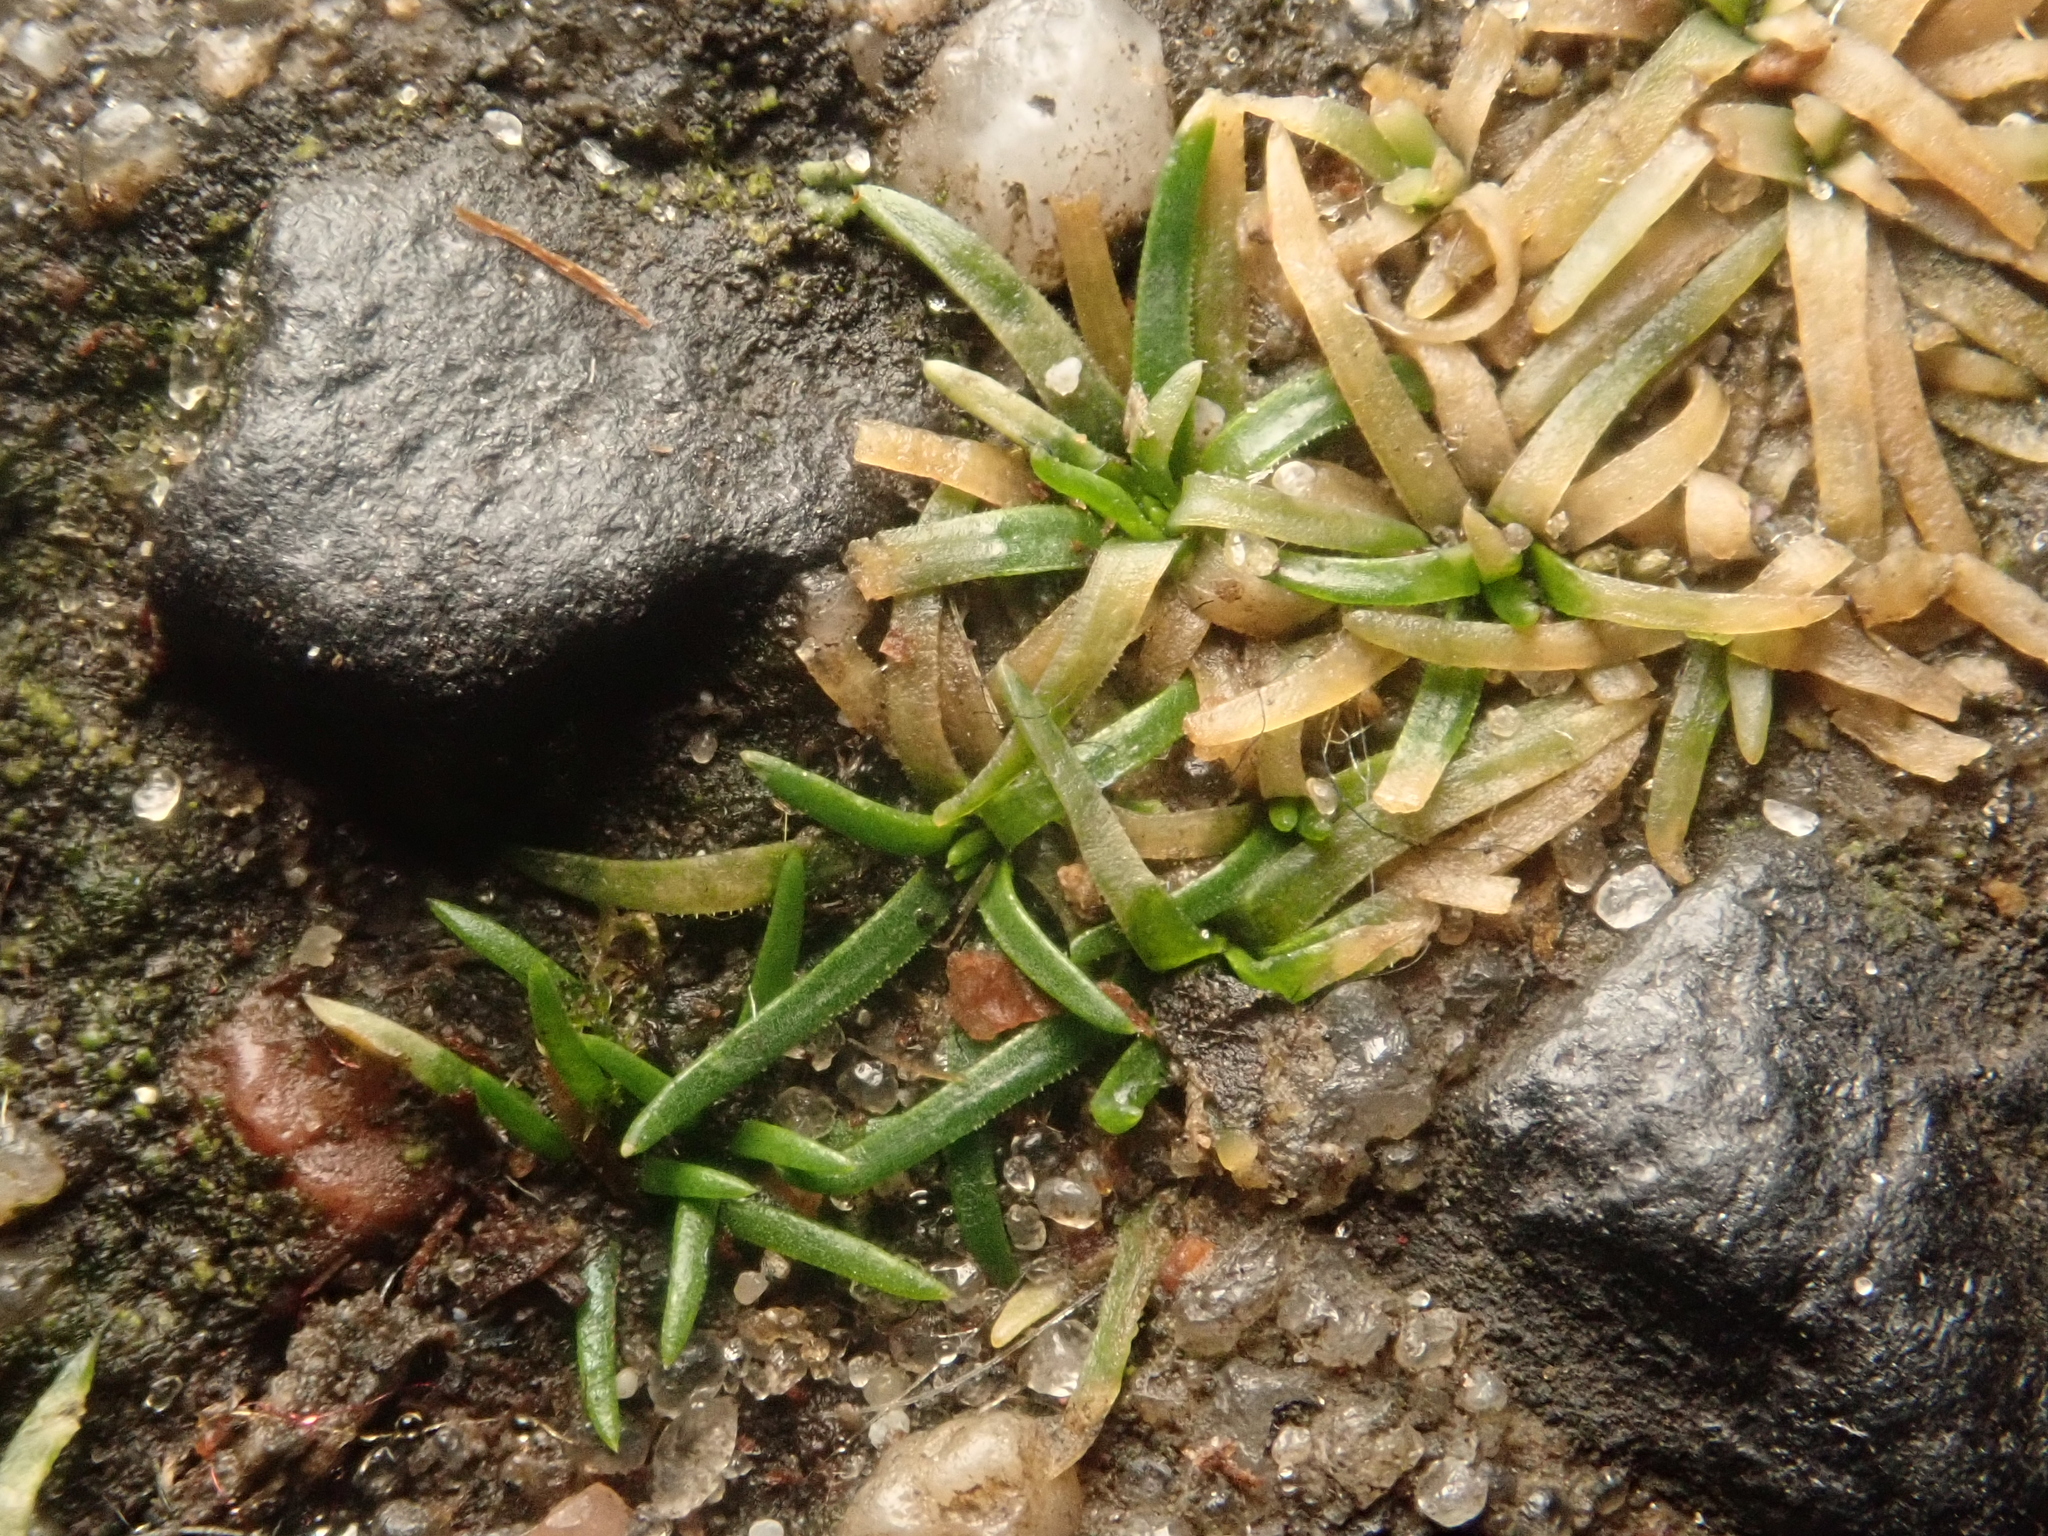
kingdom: Plantae
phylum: Tracheophyta
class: Magnoliopsida
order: Caryophyllales
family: Caryophyllaceae
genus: Sagina
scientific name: Sagina procumbens
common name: Procumbent pearlwort
